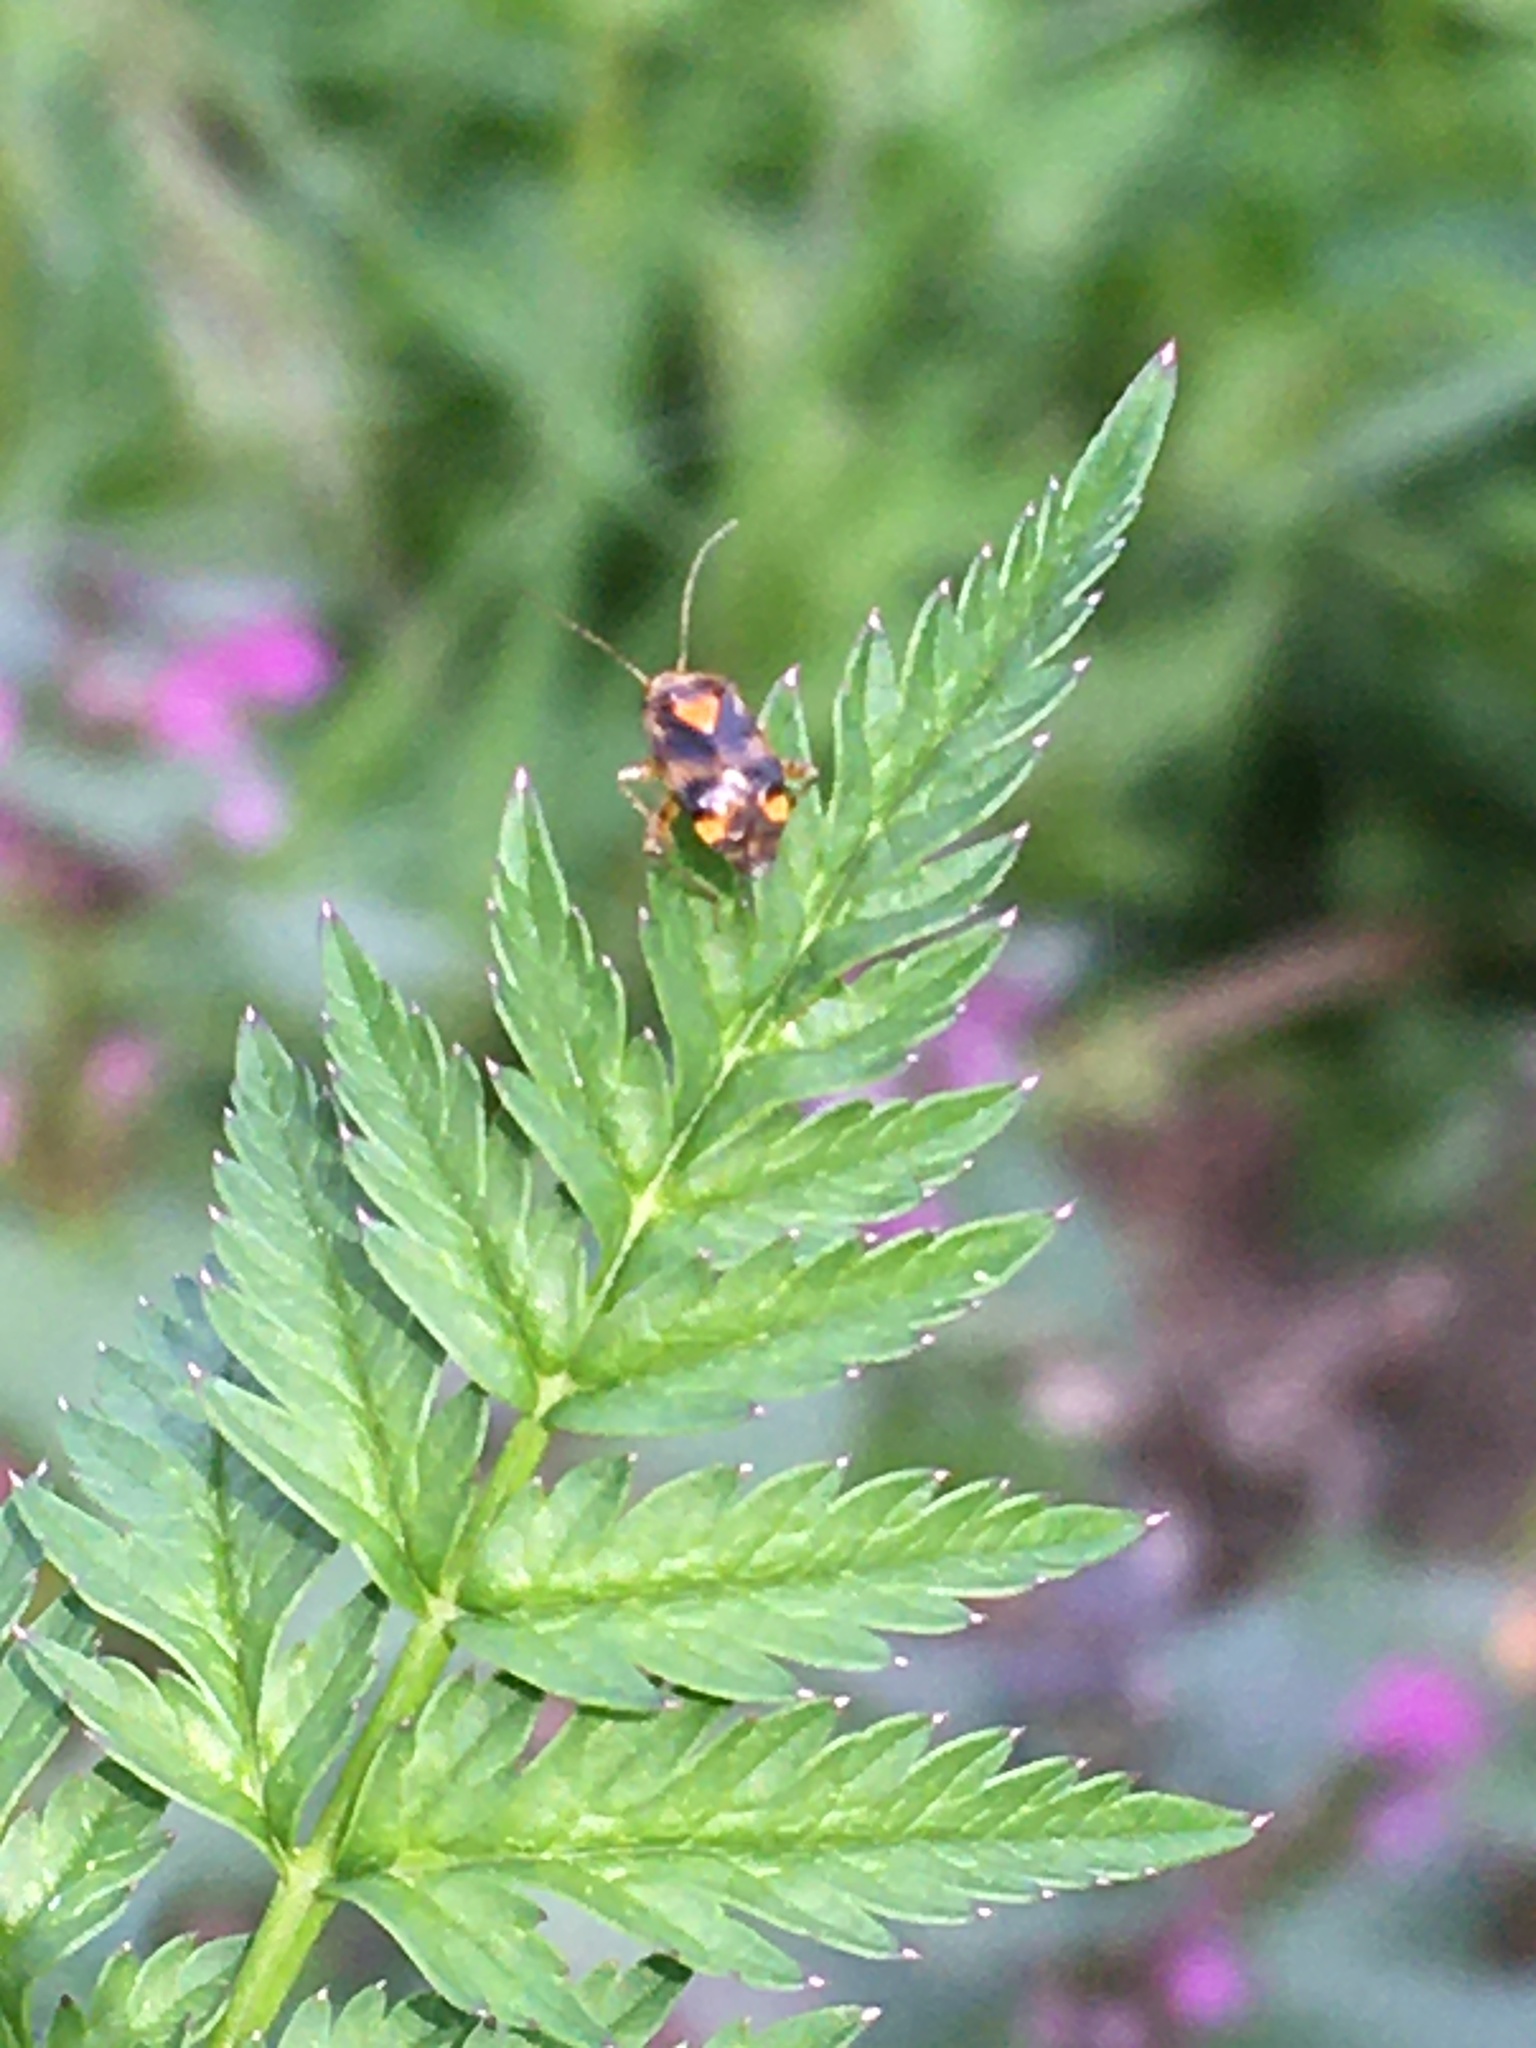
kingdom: Animalia
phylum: Arthropoda
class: Insecta
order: Hemiptera
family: Miridae
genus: Liocoris
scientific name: Liocoris tripustulatus
